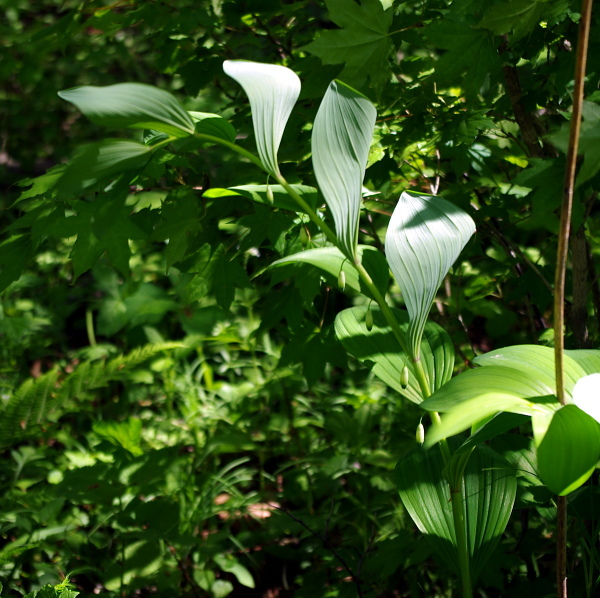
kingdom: Plantae
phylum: Tracheophyta
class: Liliopsida
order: Asparagales
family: Asparagaceae
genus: Polygonatum
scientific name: Polygonatum odoratum
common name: Angular solomon's-seal
